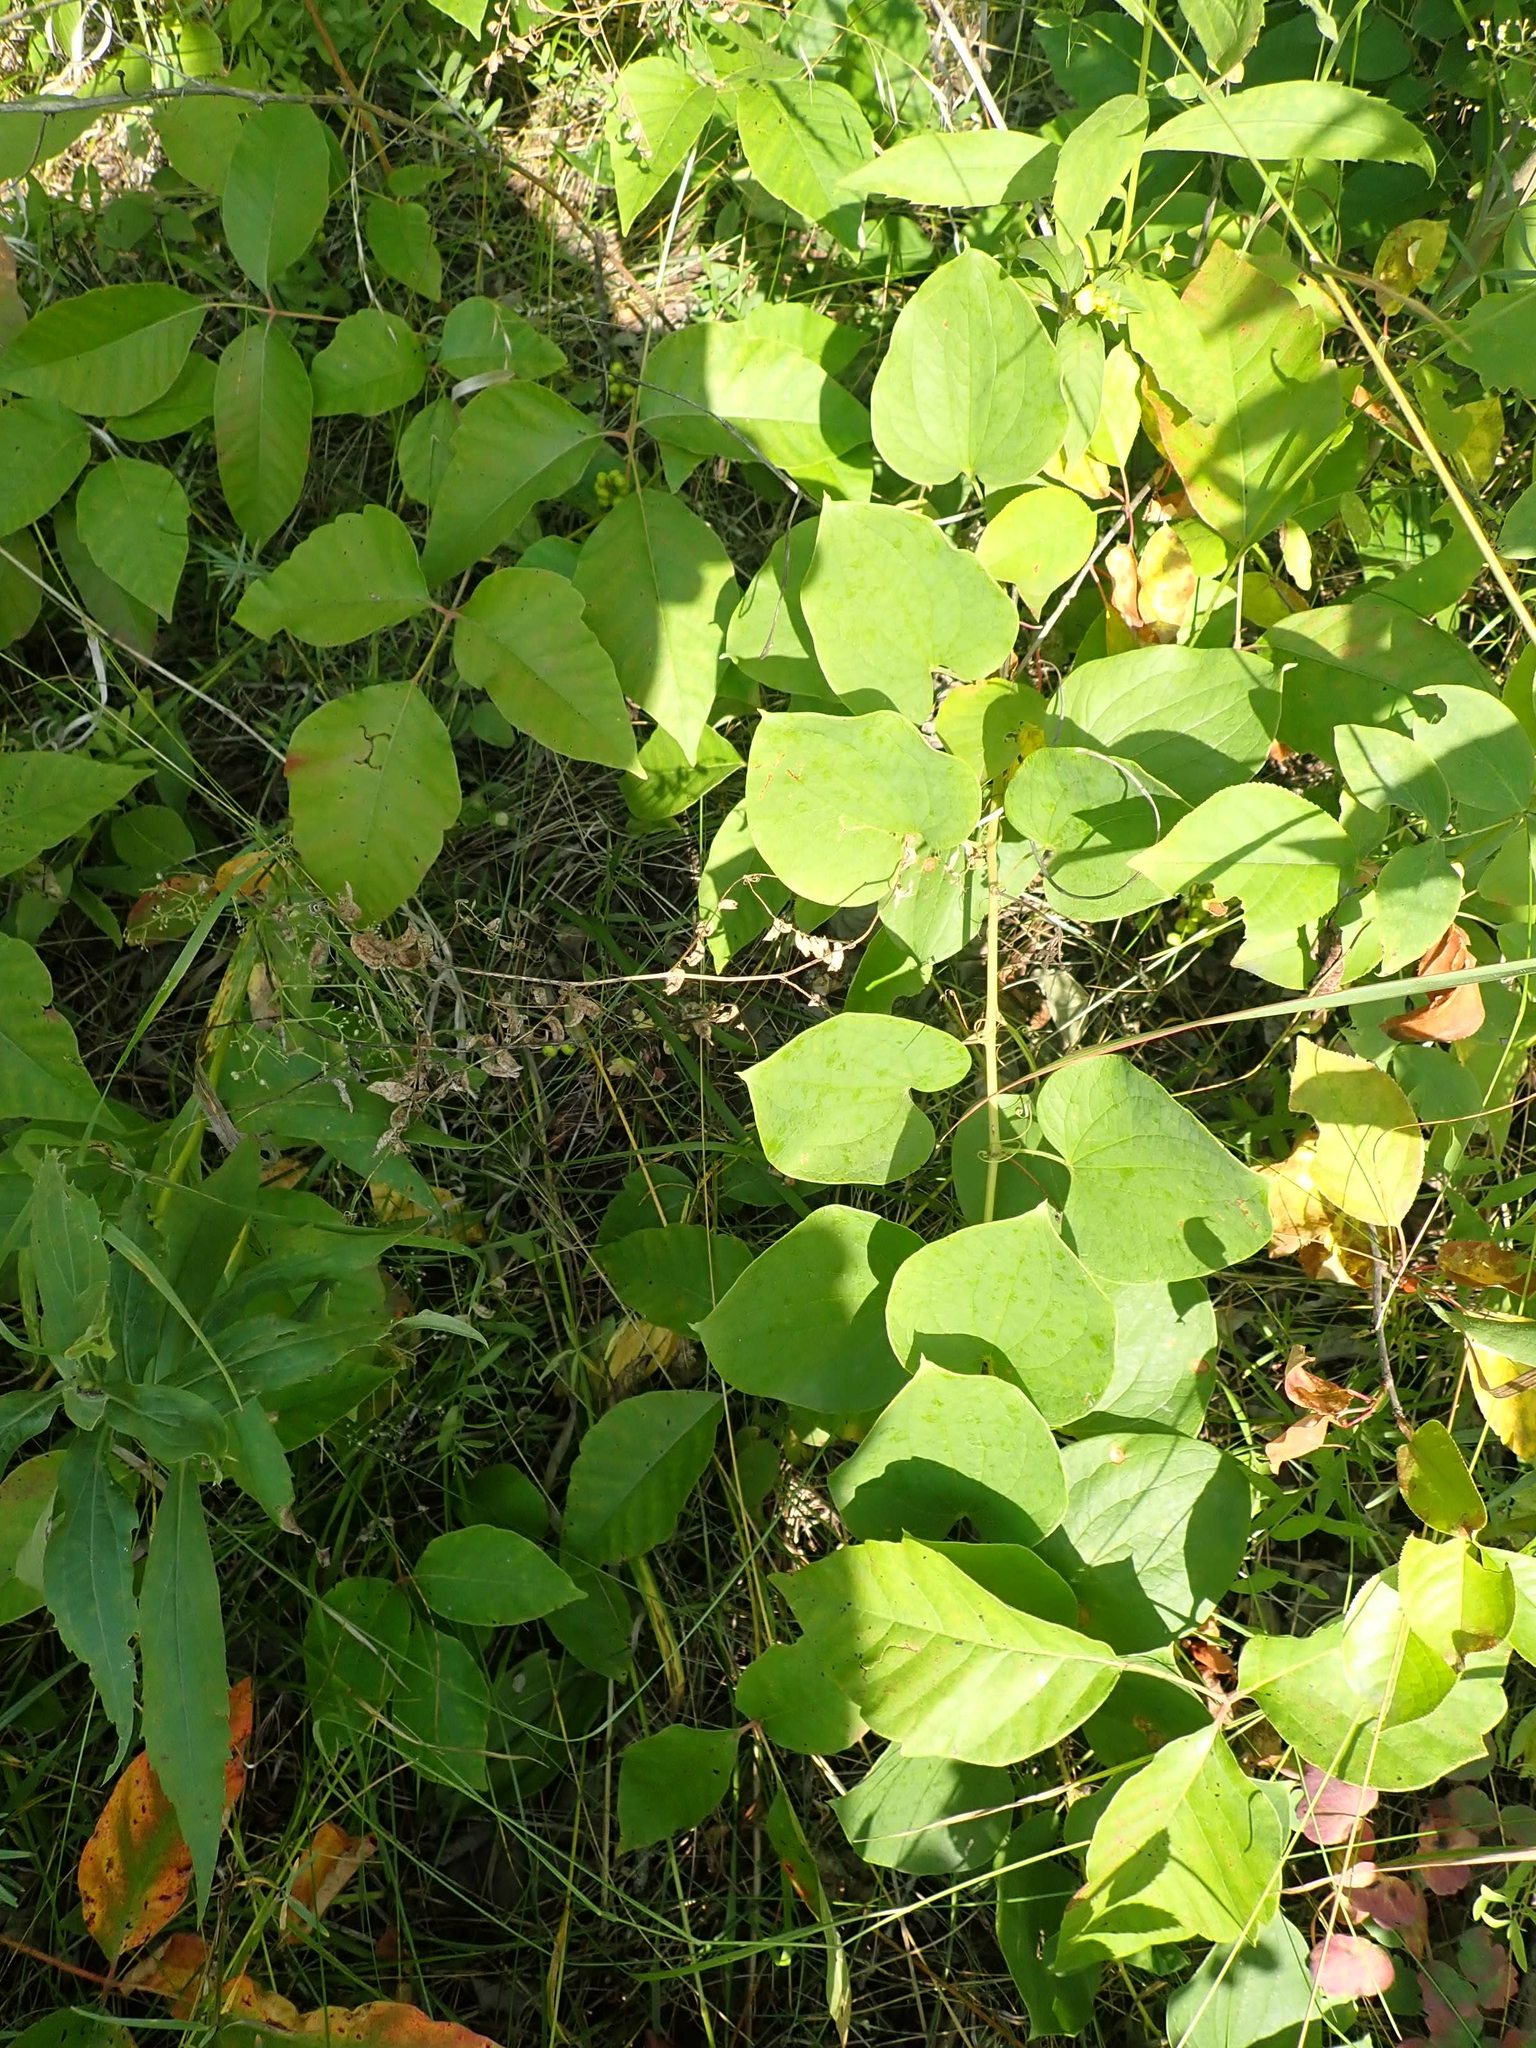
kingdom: Plantae
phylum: Tracheophyta
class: Liliopsida
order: Liliales
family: Smilacaceae
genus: Smilax
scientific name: Smilax lasioneura
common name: Blue ridge carrionflower
